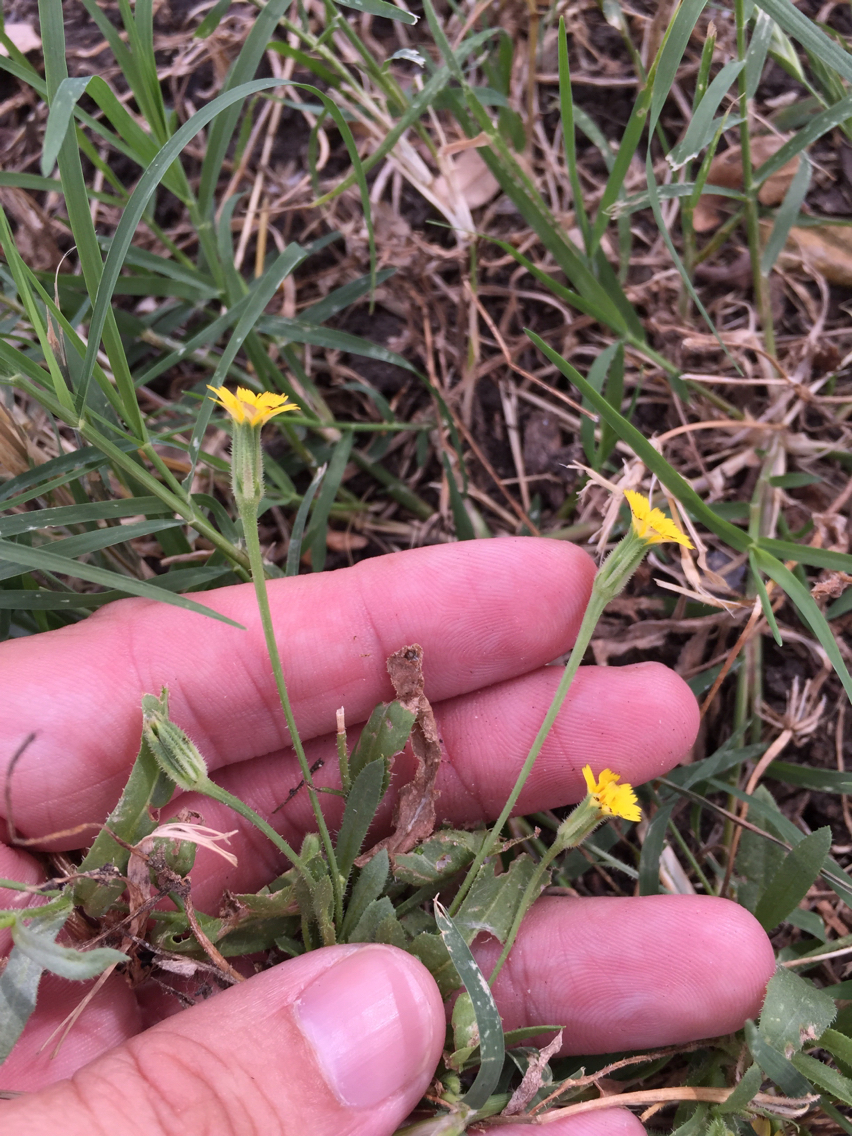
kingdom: Plantae
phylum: Tracheophyta
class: Magnoliopsida
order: Asterales
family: Asteraceae
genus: Hedypnois
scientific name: Hedypnois rhagadioloides
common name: Cretan weed
